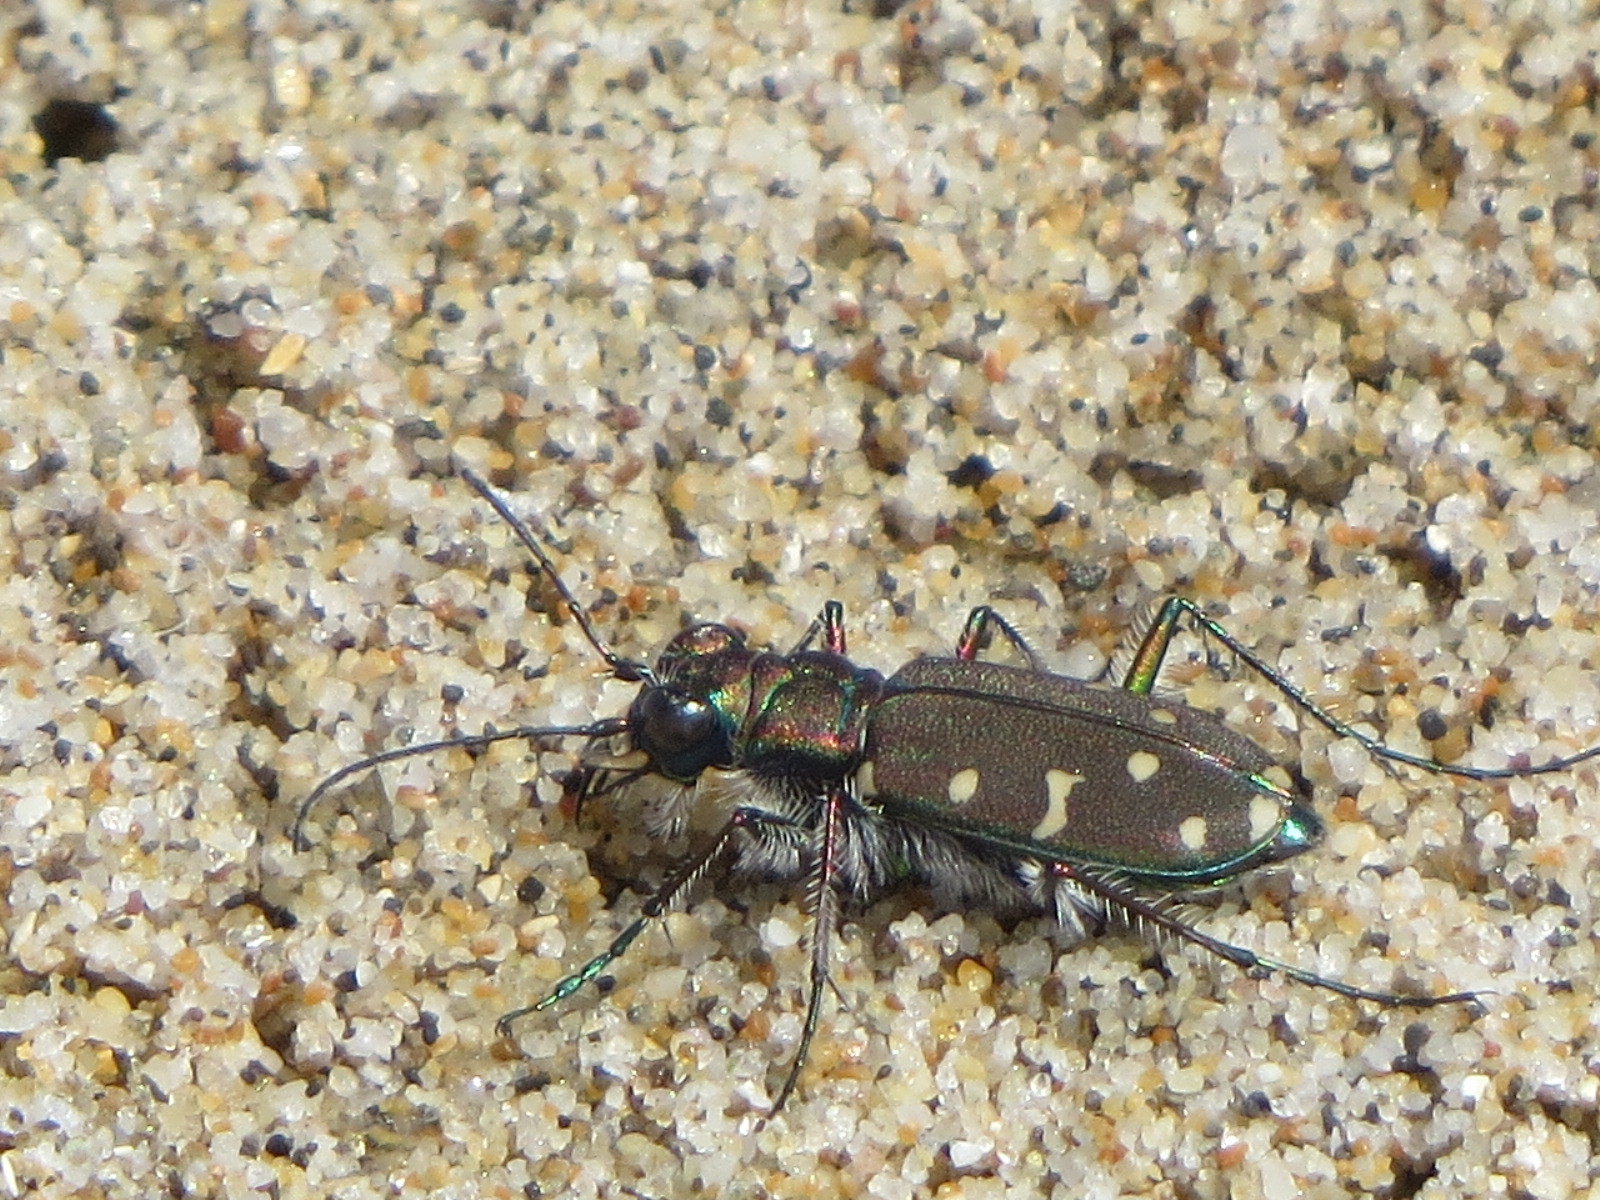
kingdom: Animalia
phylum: Arthropoda
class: Insecta
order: Coleoptera
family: Carabidae
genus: Cicindela
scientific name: Cicindela oregona
